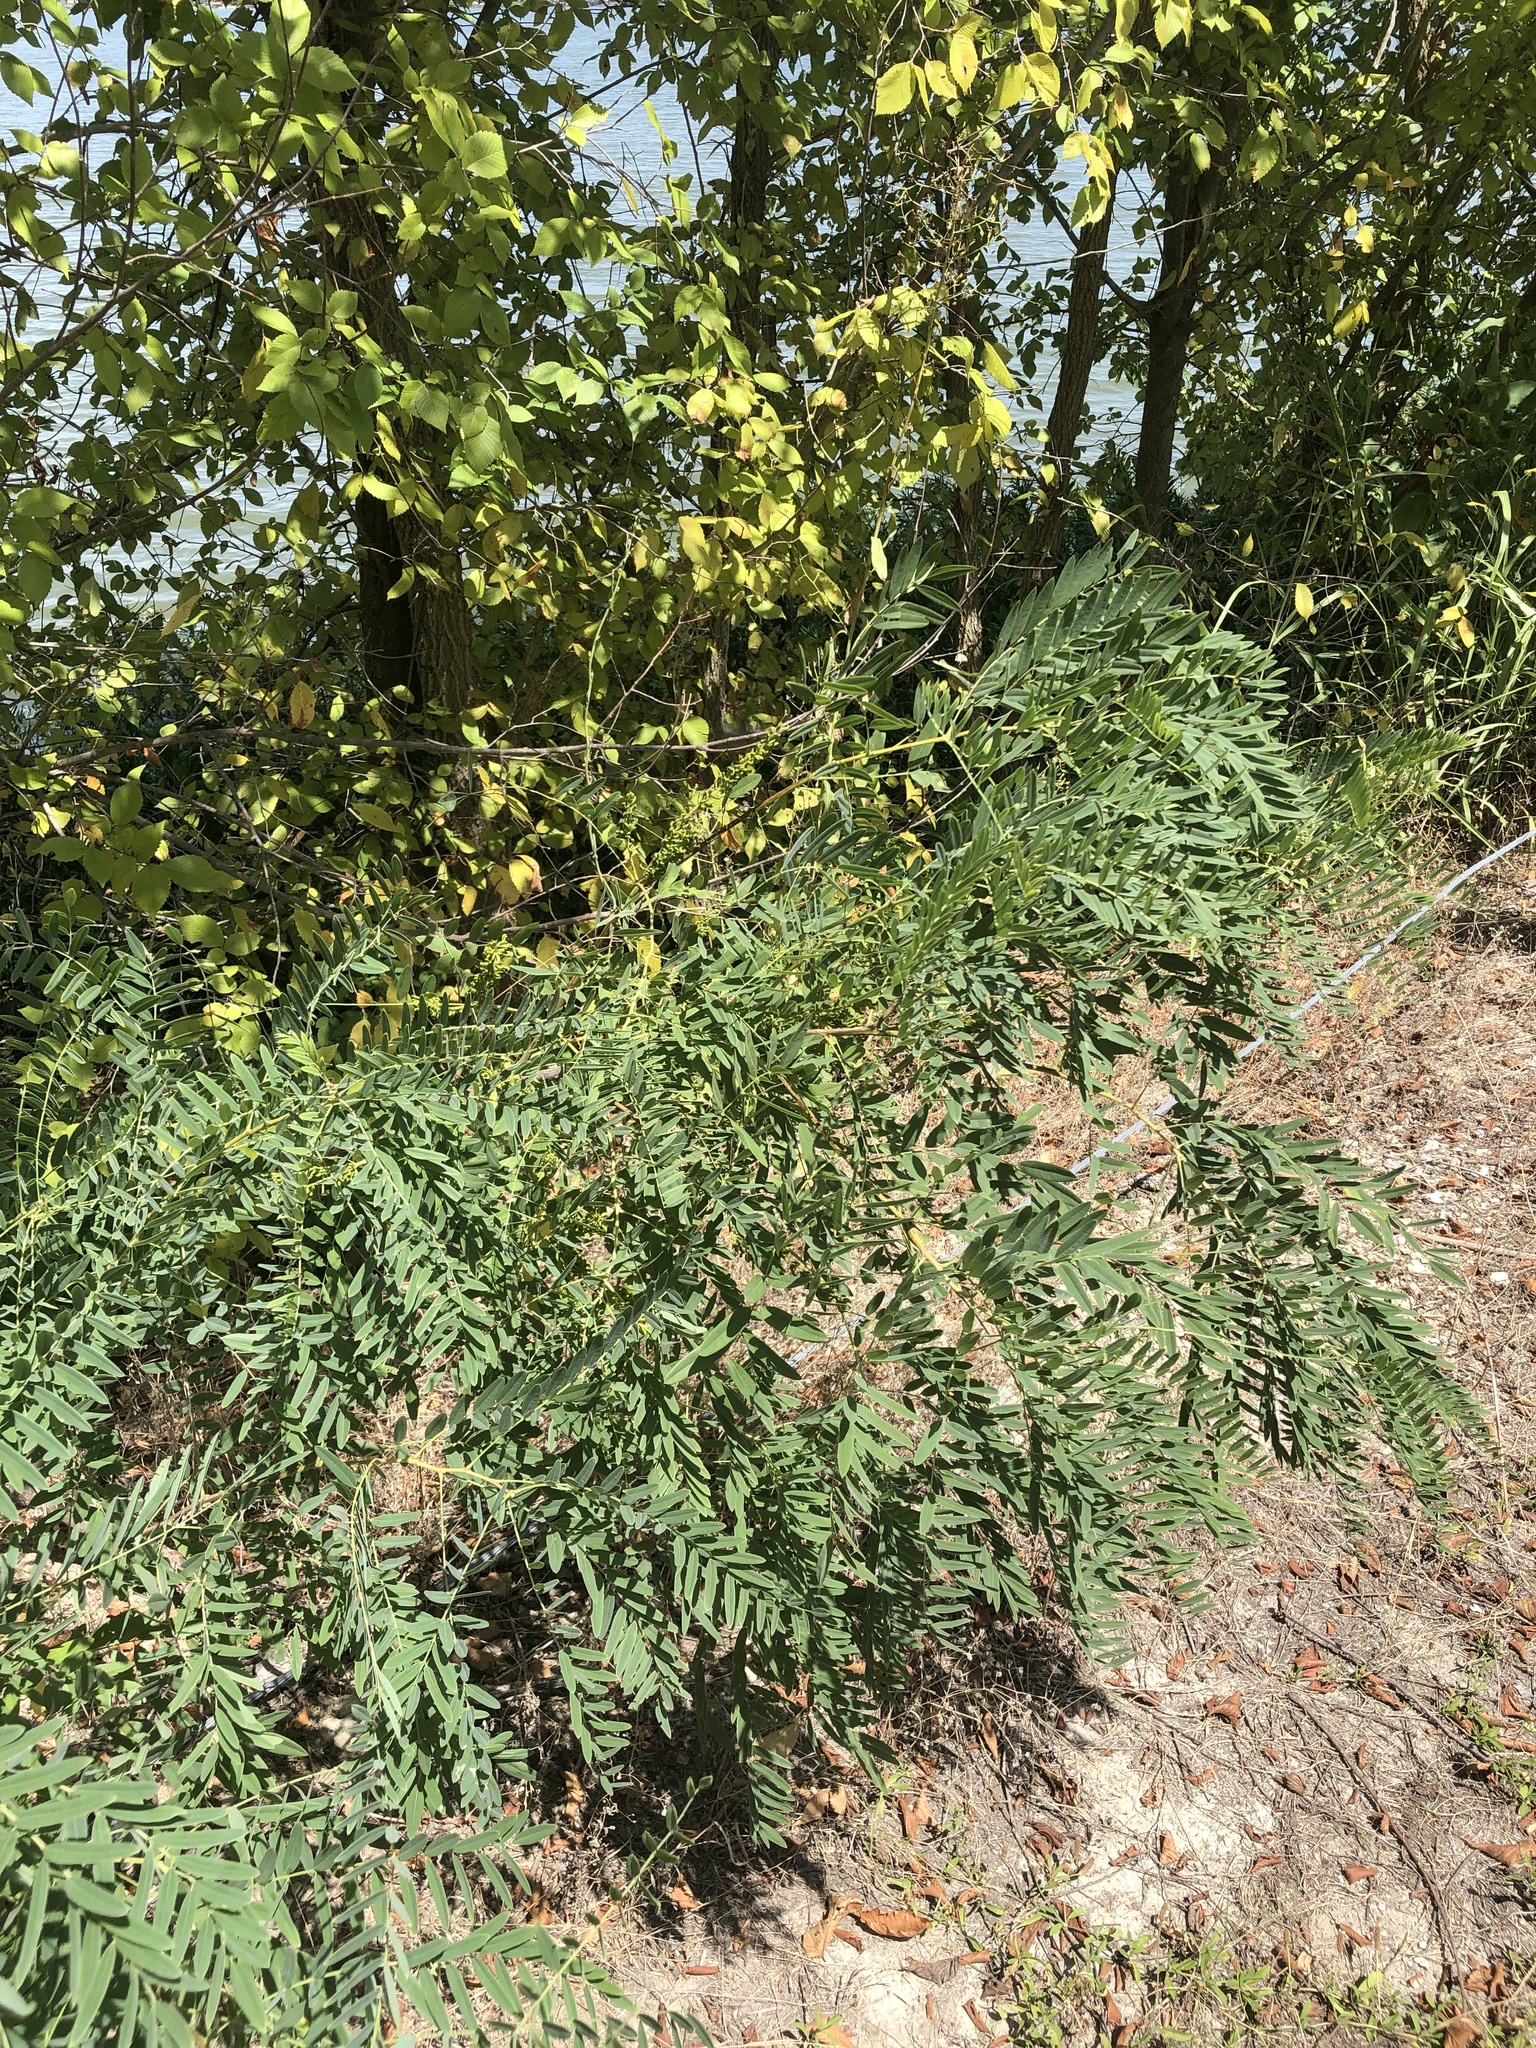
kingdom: Plantae
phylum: Tracheophyta
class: Magnoliopsida
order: Fabales
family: Fabaceae
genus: Amorpha
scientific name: Amorpha fruticosa
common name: False indigo
